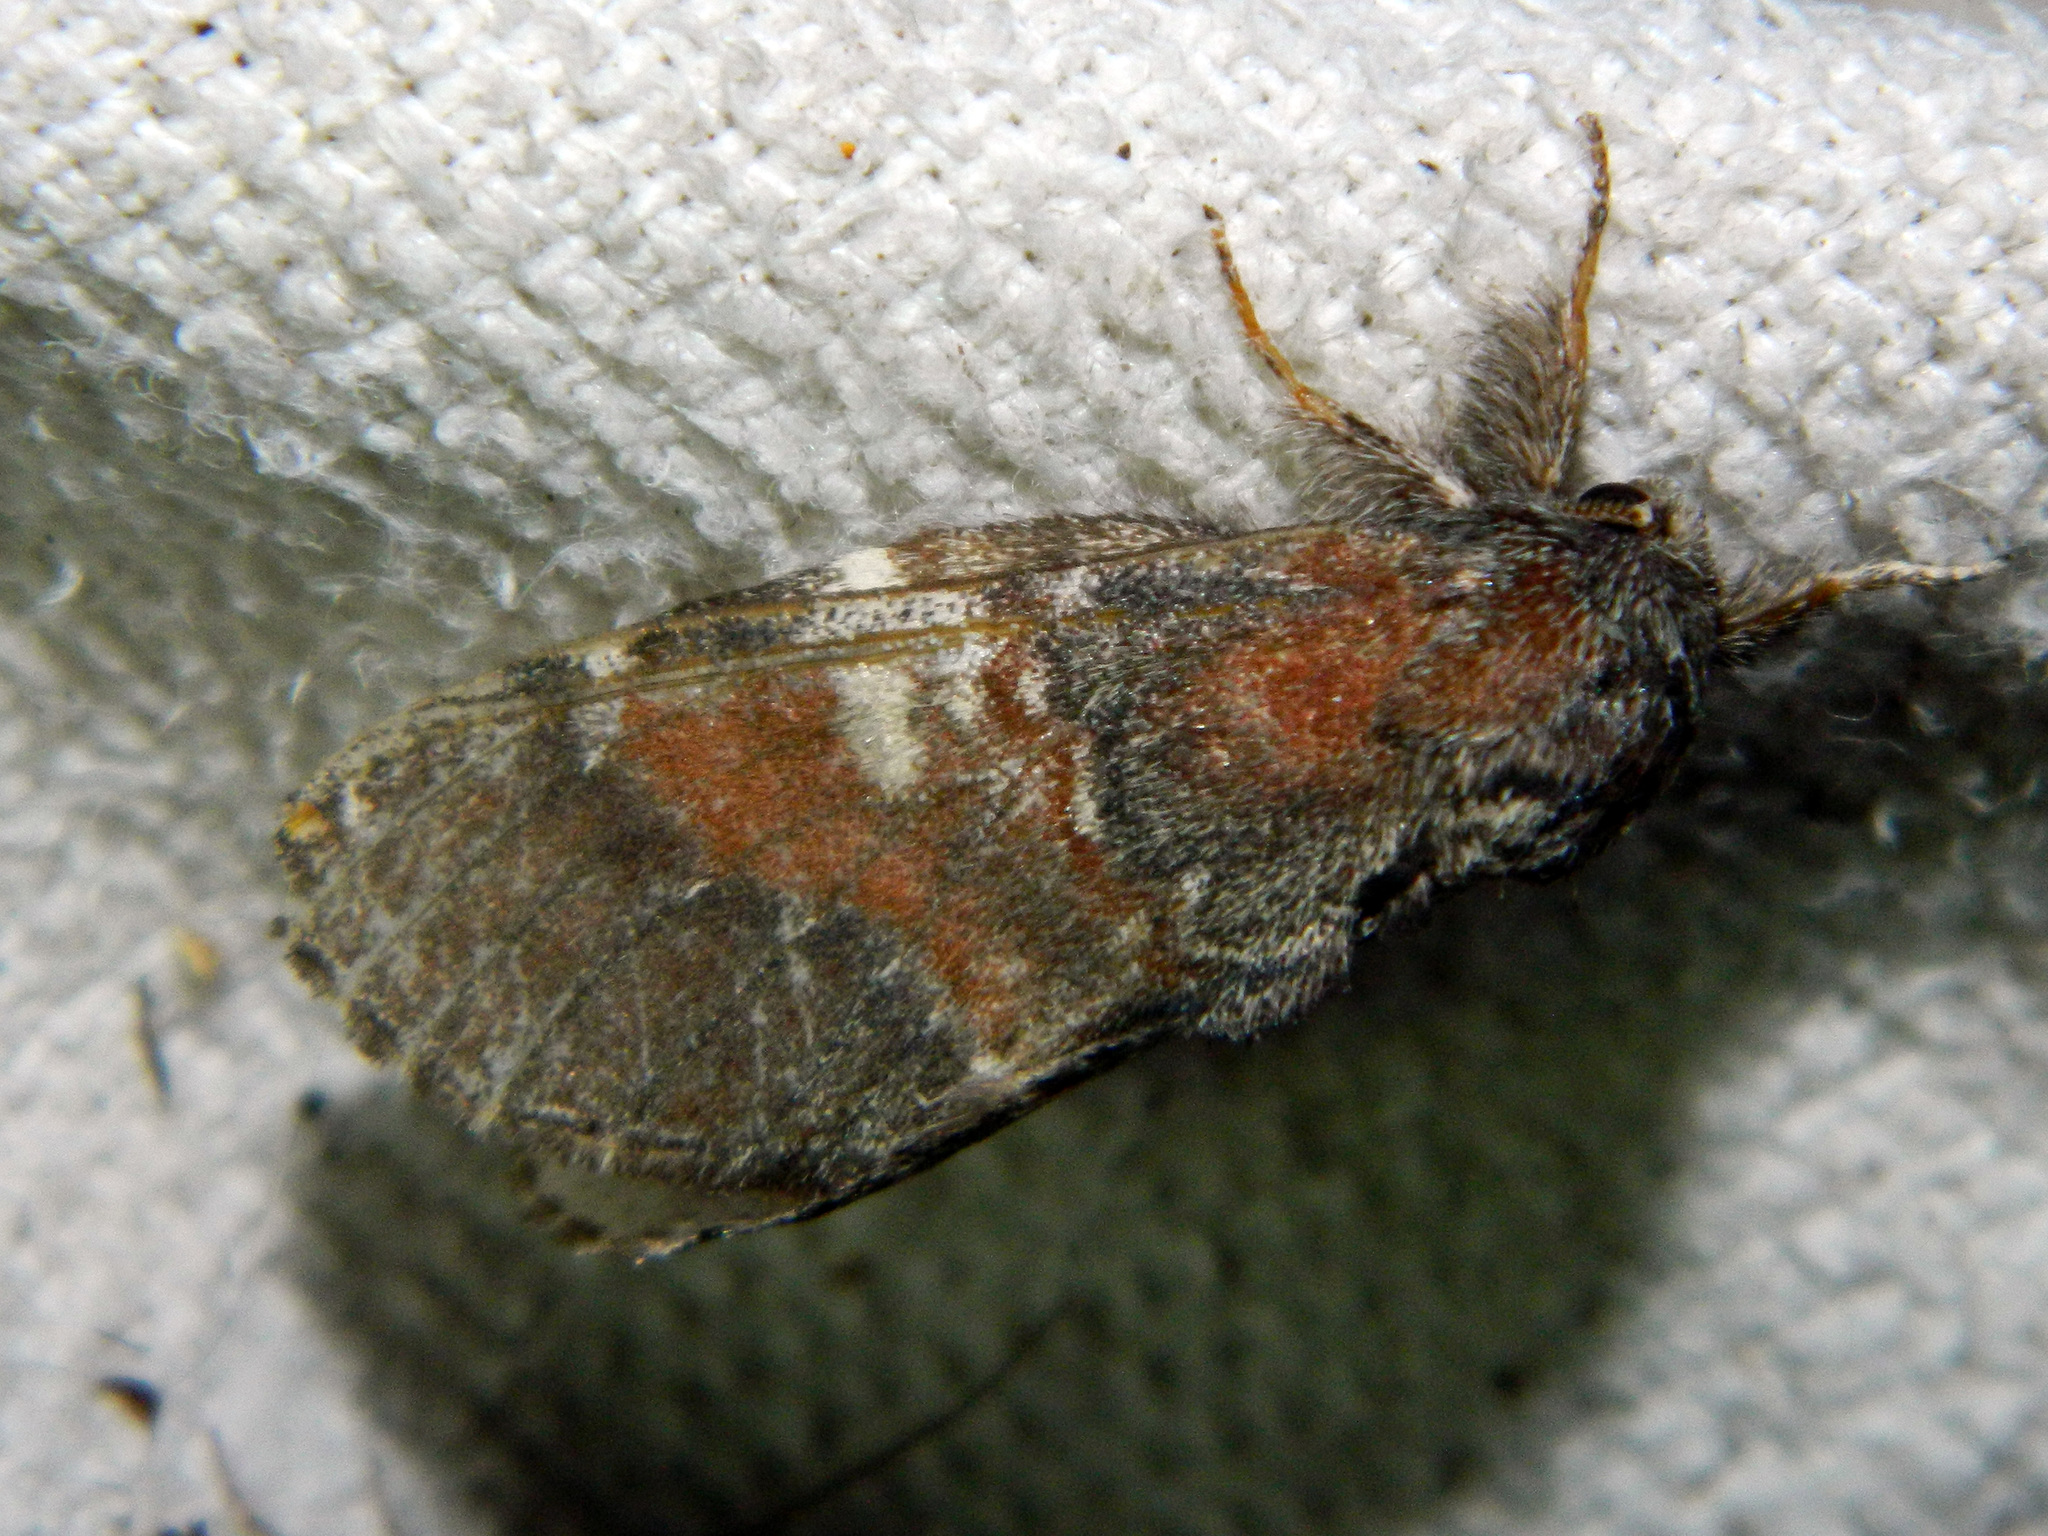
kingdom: Animalia
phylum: Arthropoda
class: Insecta
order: Lepidoptera
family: Notodontidae
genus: Peridea
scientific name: Peridea ferruginea
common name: Chocolate prominent
